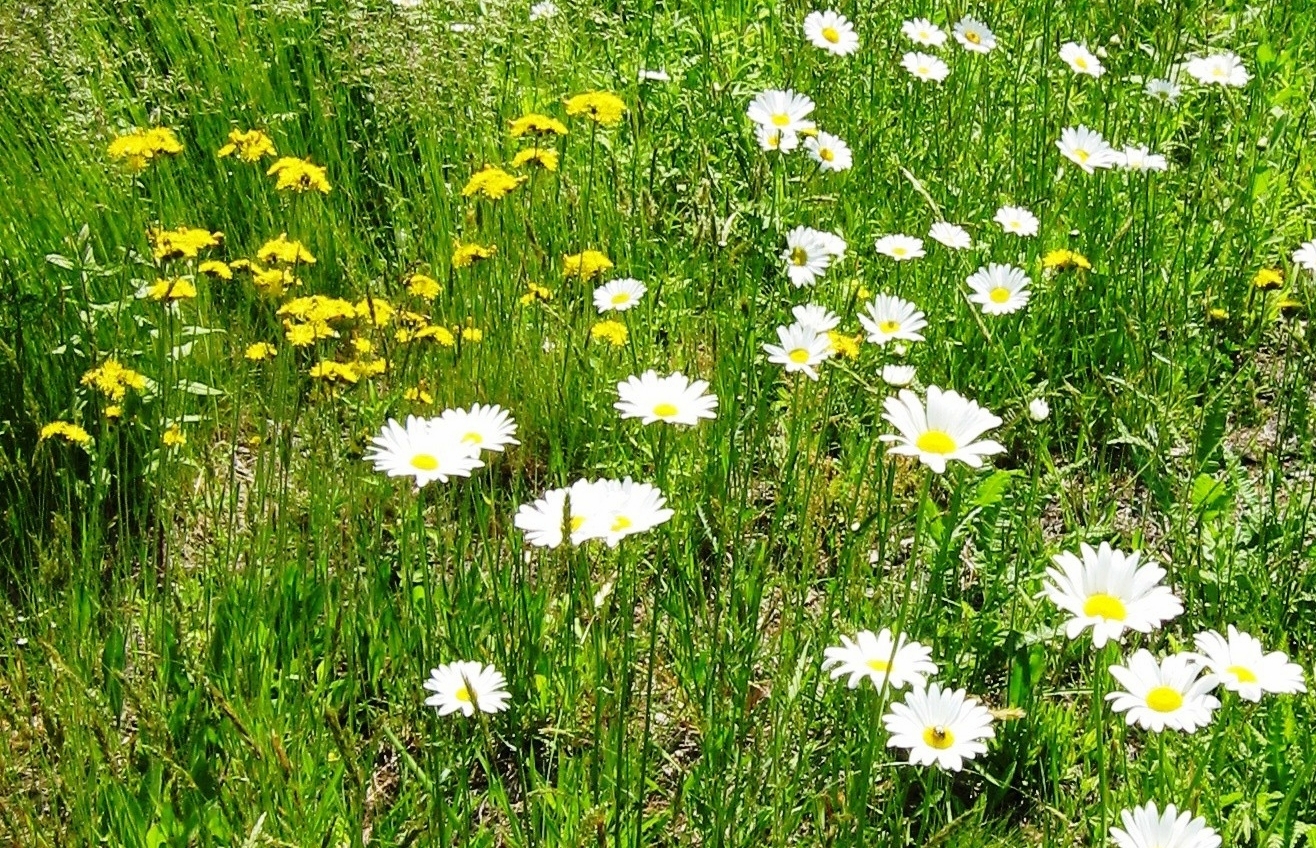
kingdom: Plantae
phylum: Tracheophyta
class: Magnoliopsida
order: Asterales
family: Asteraceae
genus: Leucanthemum
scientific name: Leucanthemum vulgare
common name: Oxeye daisy
